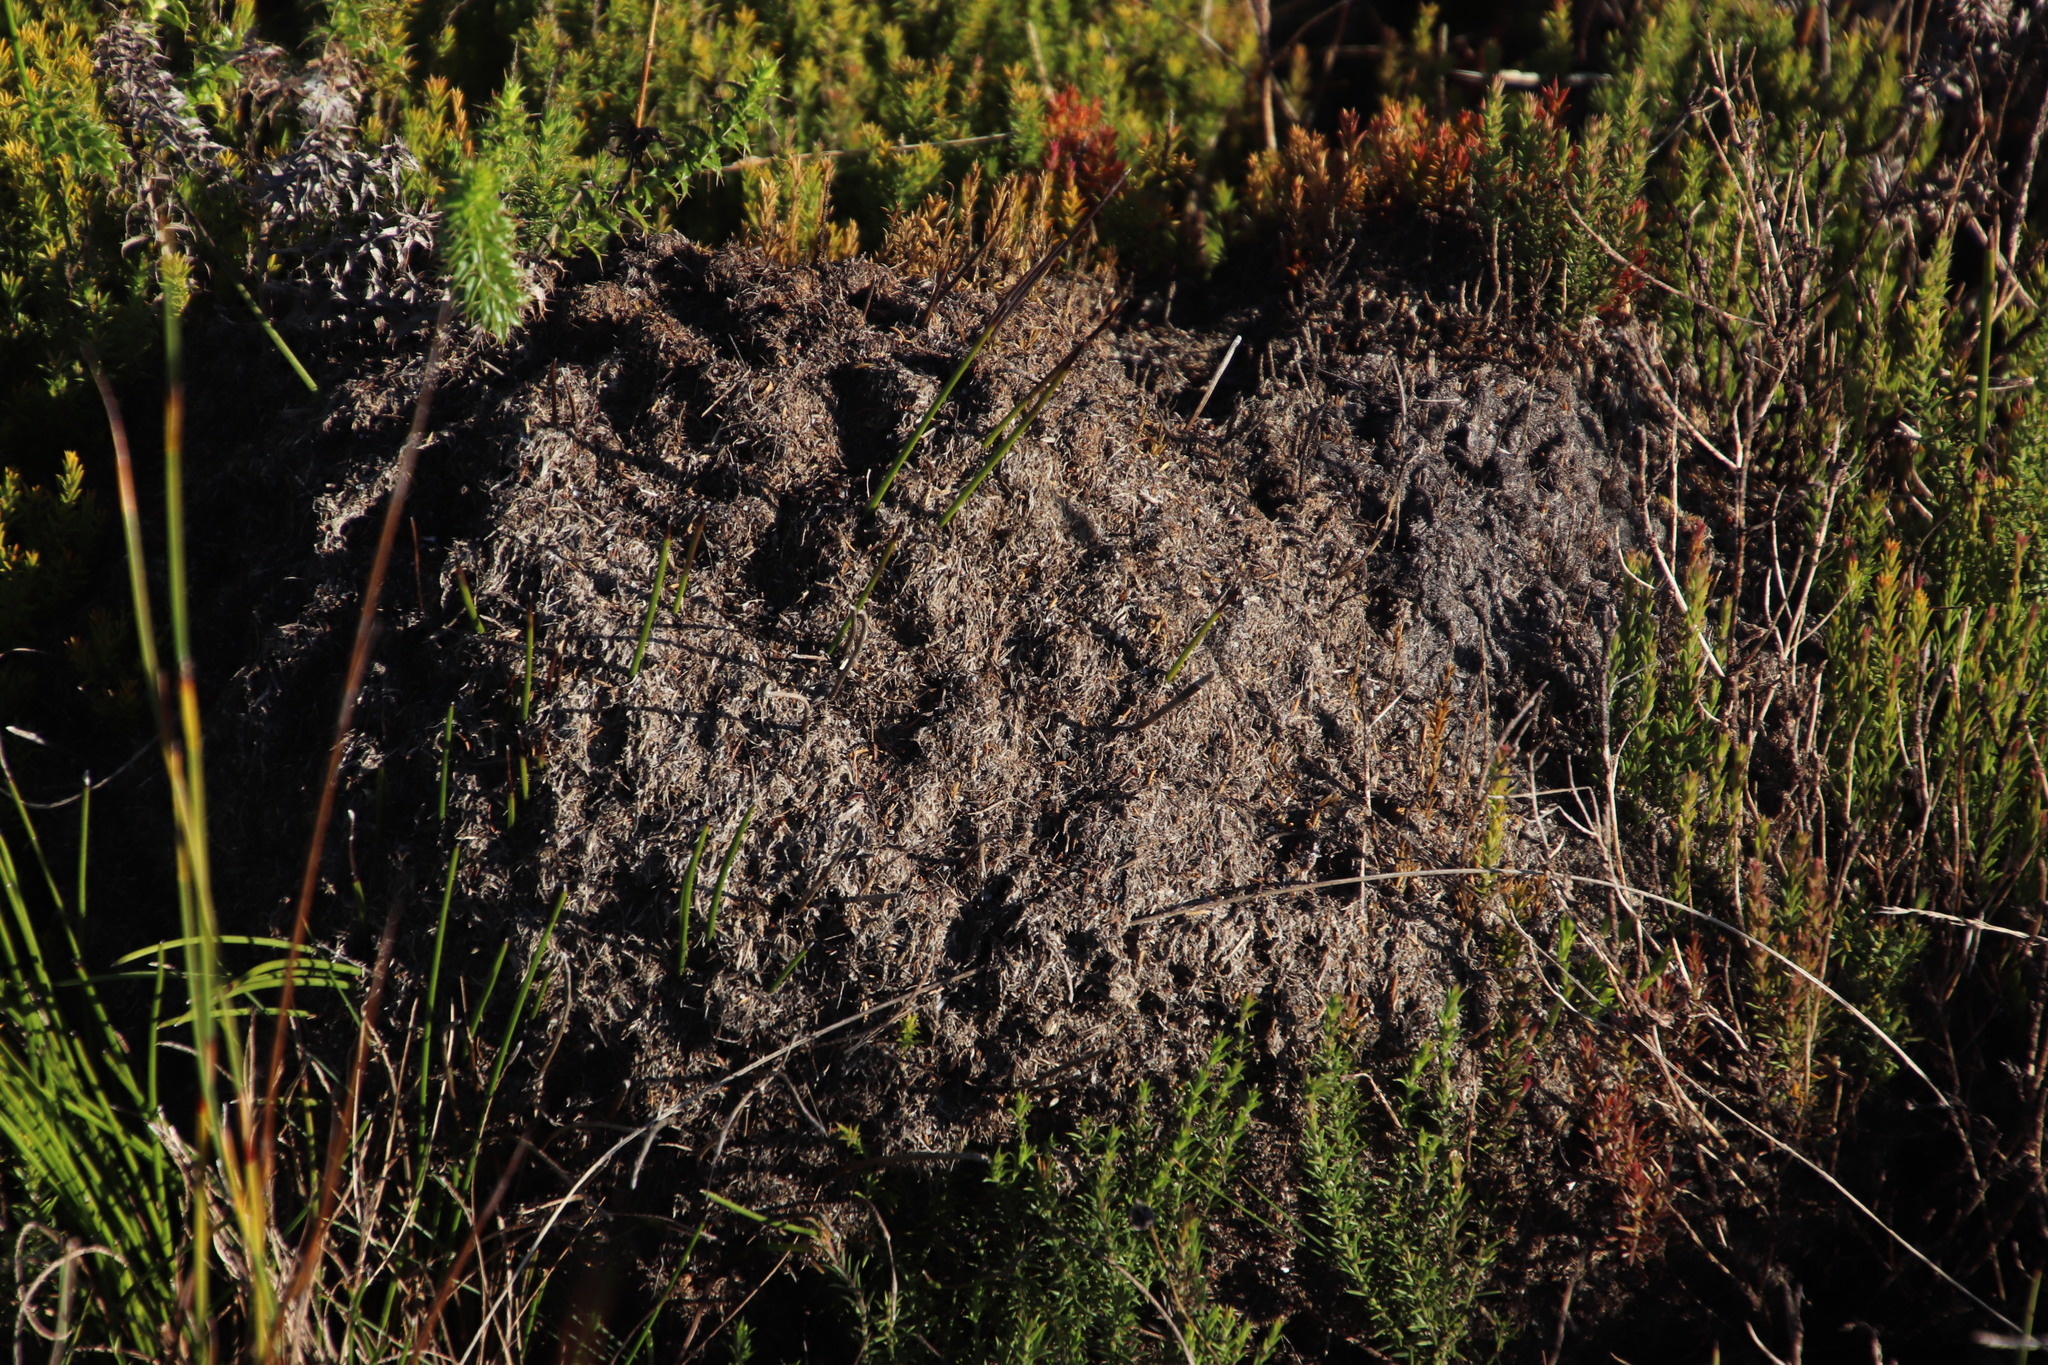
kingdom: Animalia
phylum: Arthropoda
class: Insecta
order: Hymenoptera
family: Formicidae
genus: Crematogaster
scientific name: Crematogaster peringueyi
